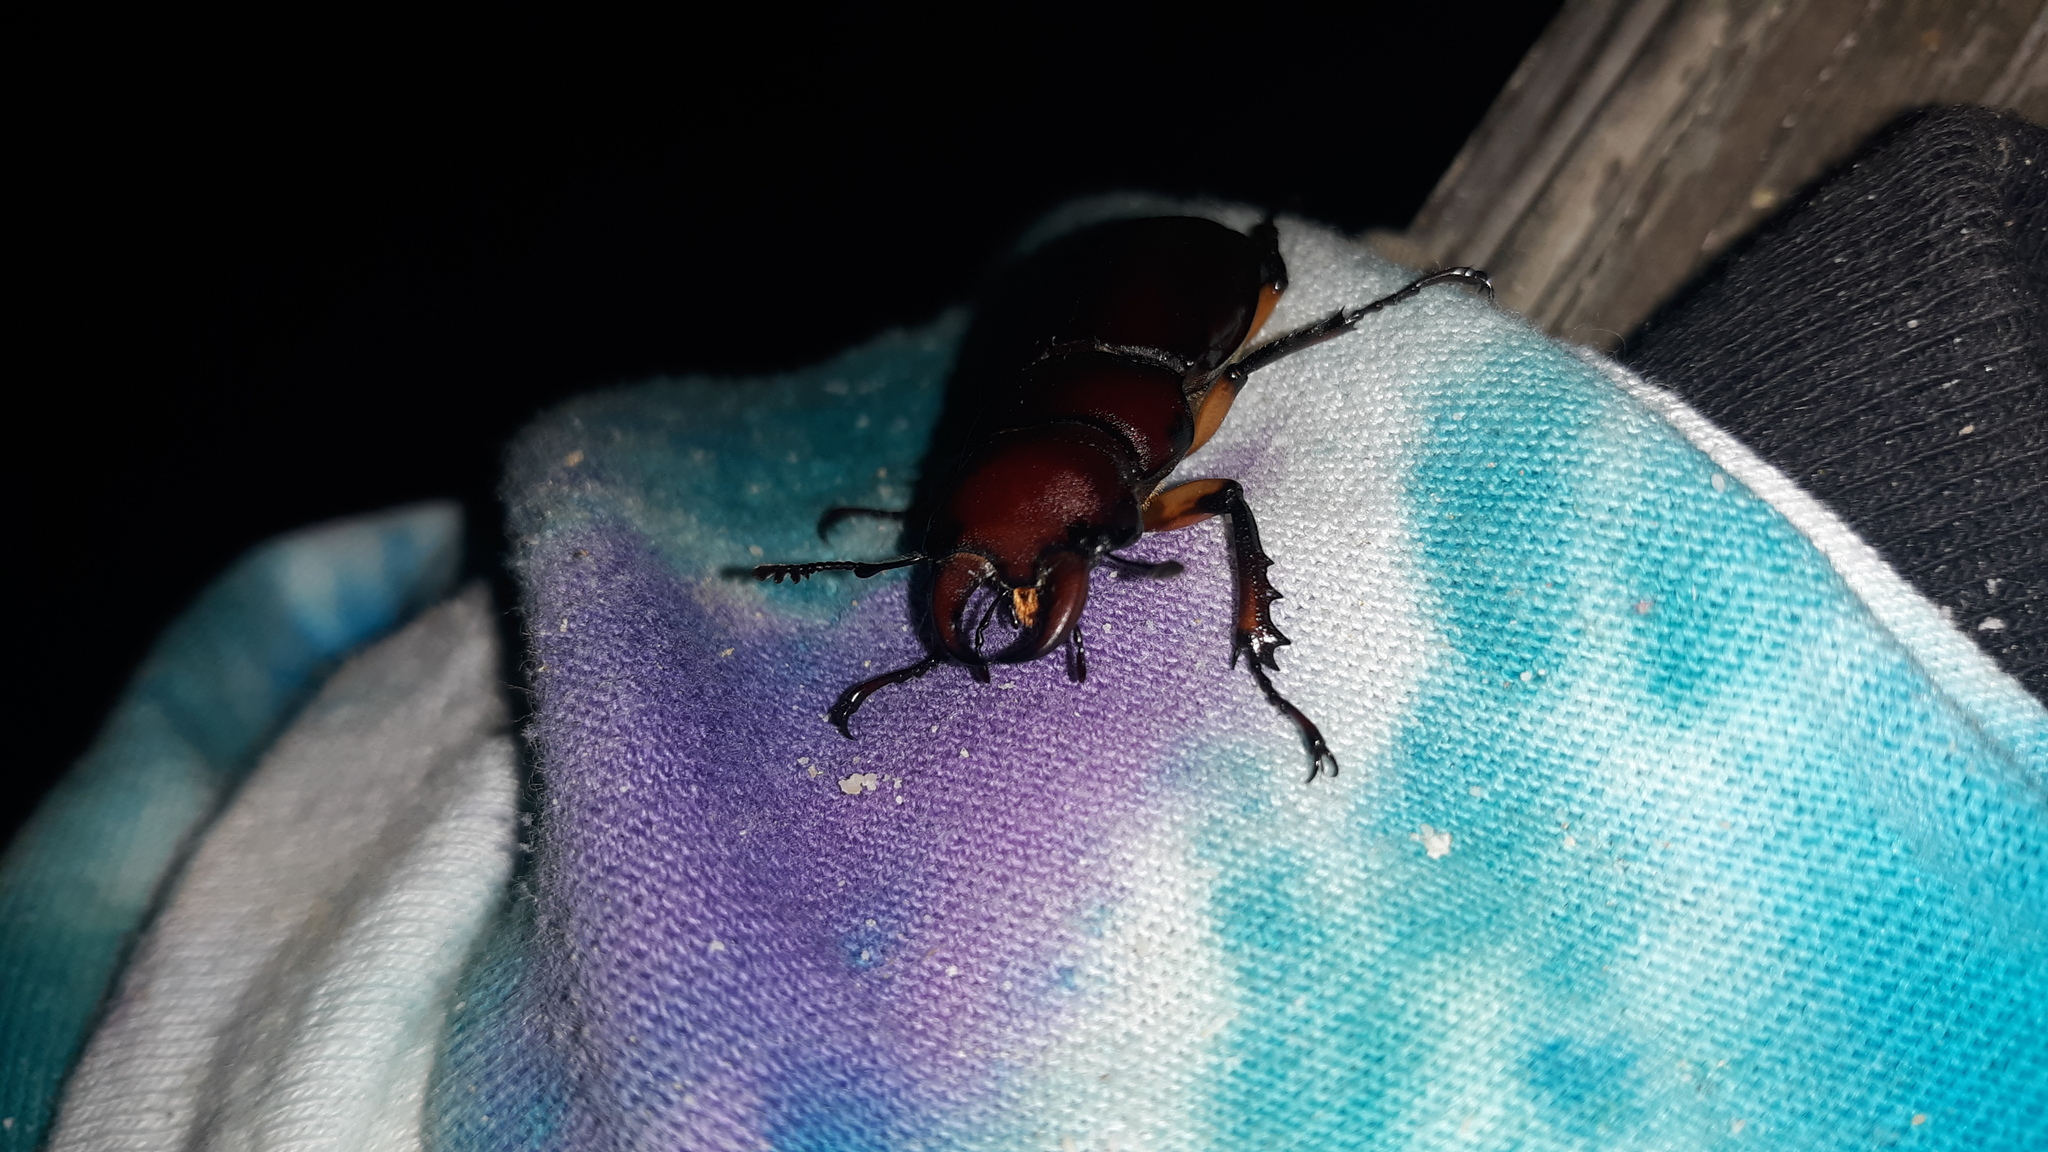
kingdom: Animalia
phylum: Arthropoda
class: Insecta
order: Coleoptera
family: Lucanidae
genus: Lucanus
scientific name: Lucanus capreolus
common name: Stag beetle
